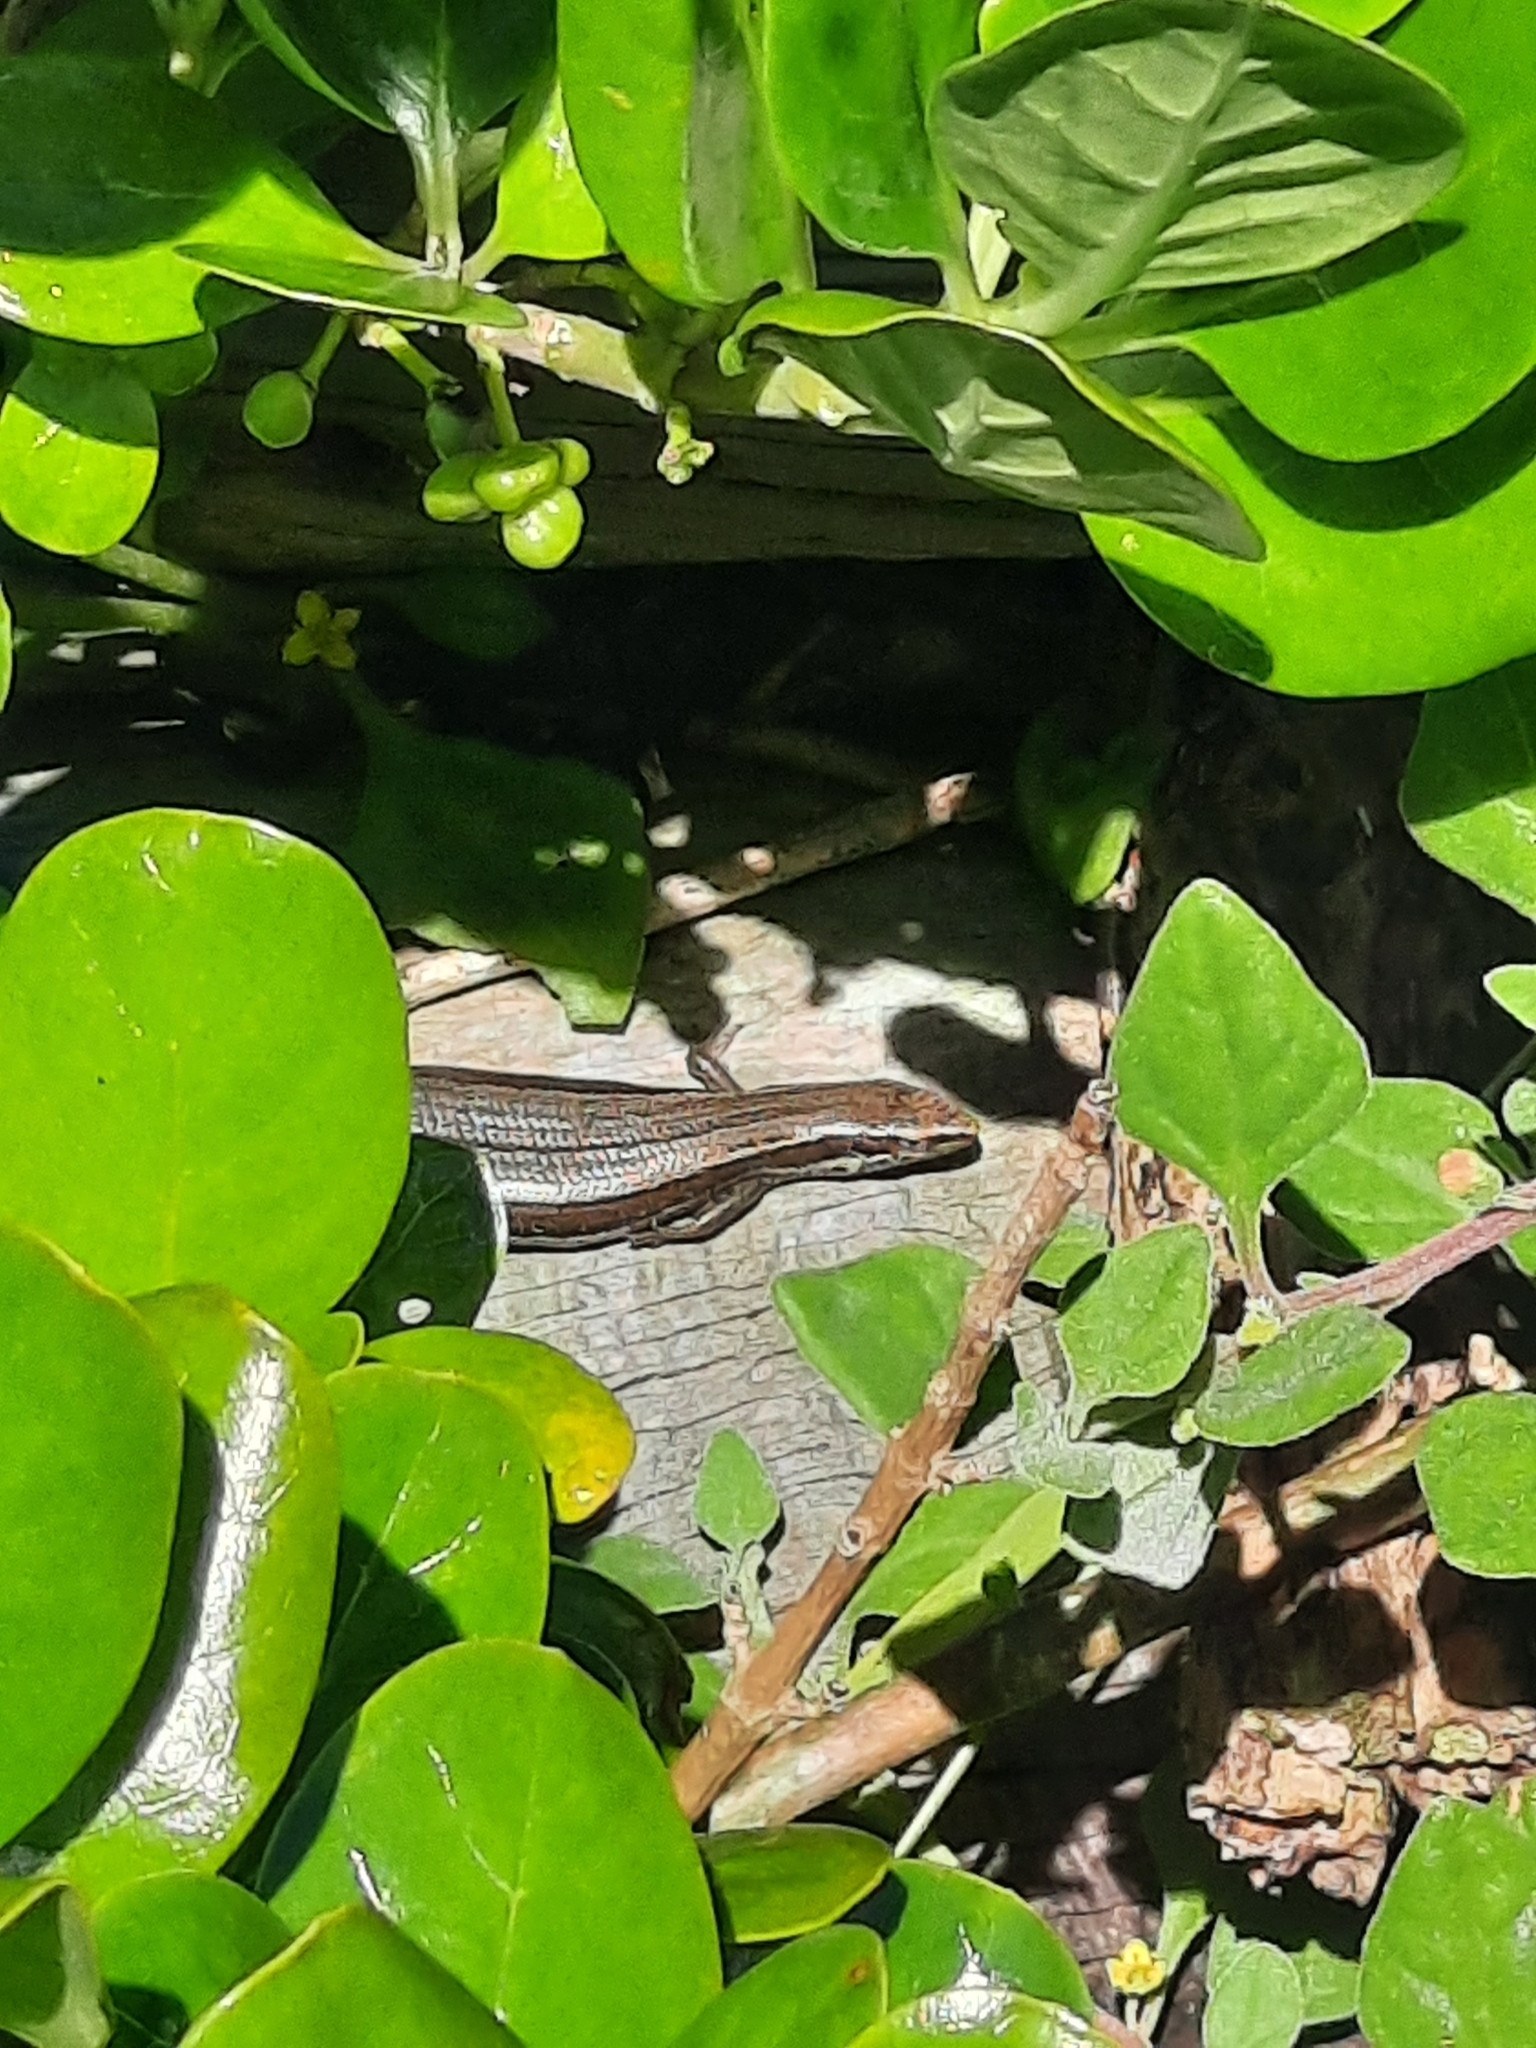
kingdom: Animalia
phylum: Chordata
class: Squamata
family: Scincidae
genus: Oligosoma
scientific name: Oligosoma polychroma
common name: Common new zealand skink
